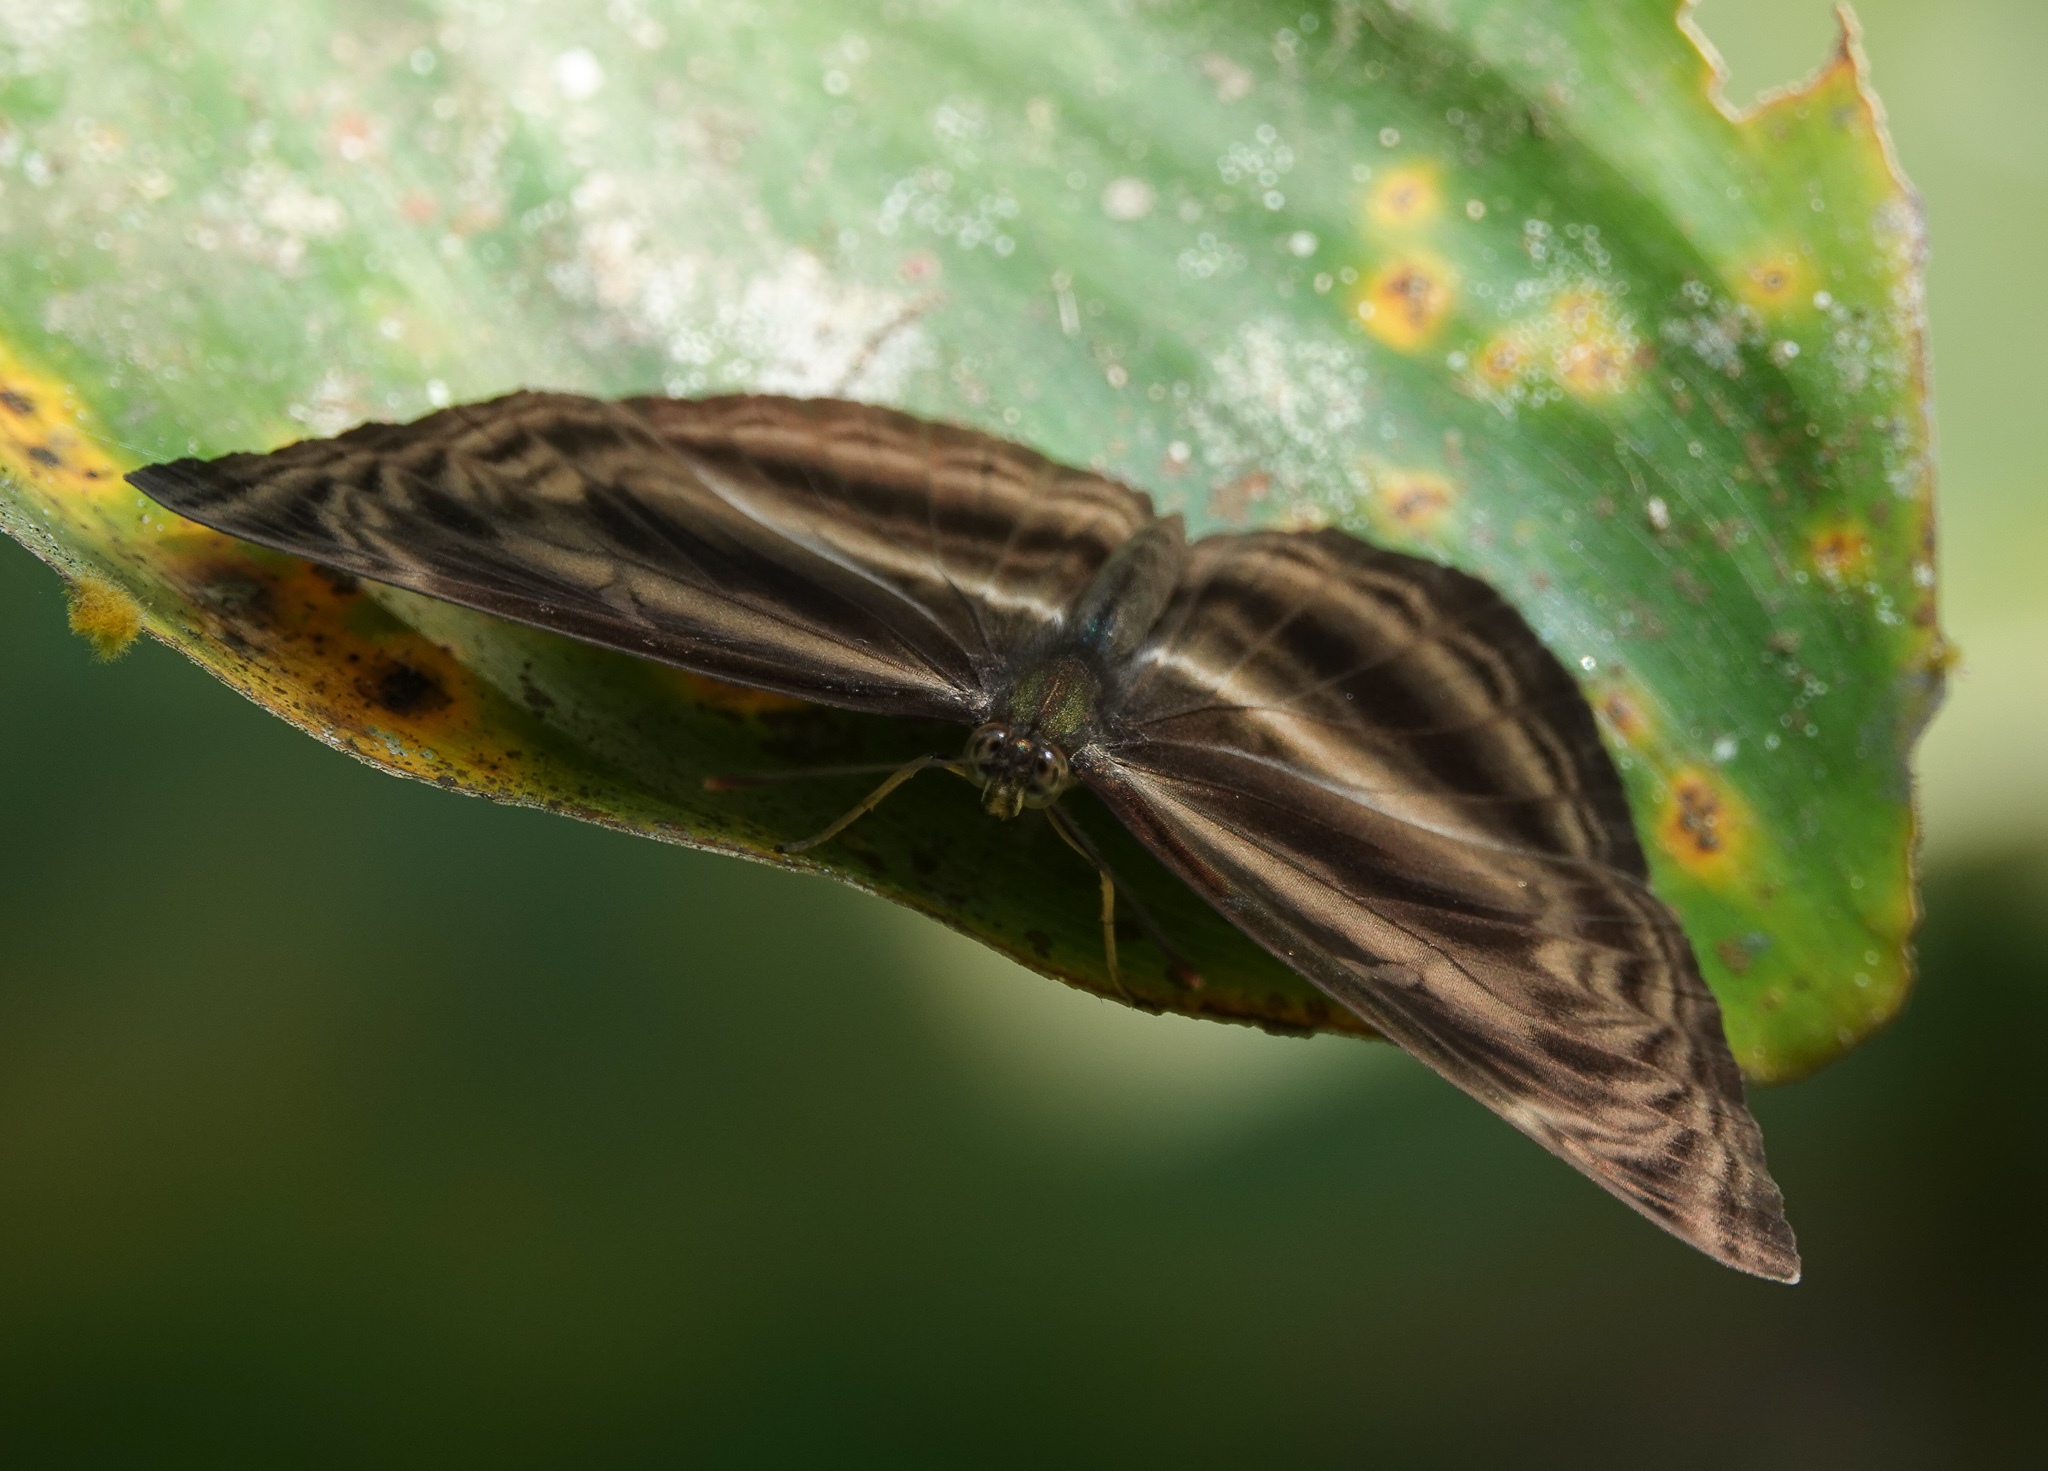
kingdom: Animalia
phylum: Arthropoda
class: Insecta
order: Lepidoptera
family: Nymphalidae
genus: Neptis
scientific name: Neptis harita
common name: Chocolate sailer
